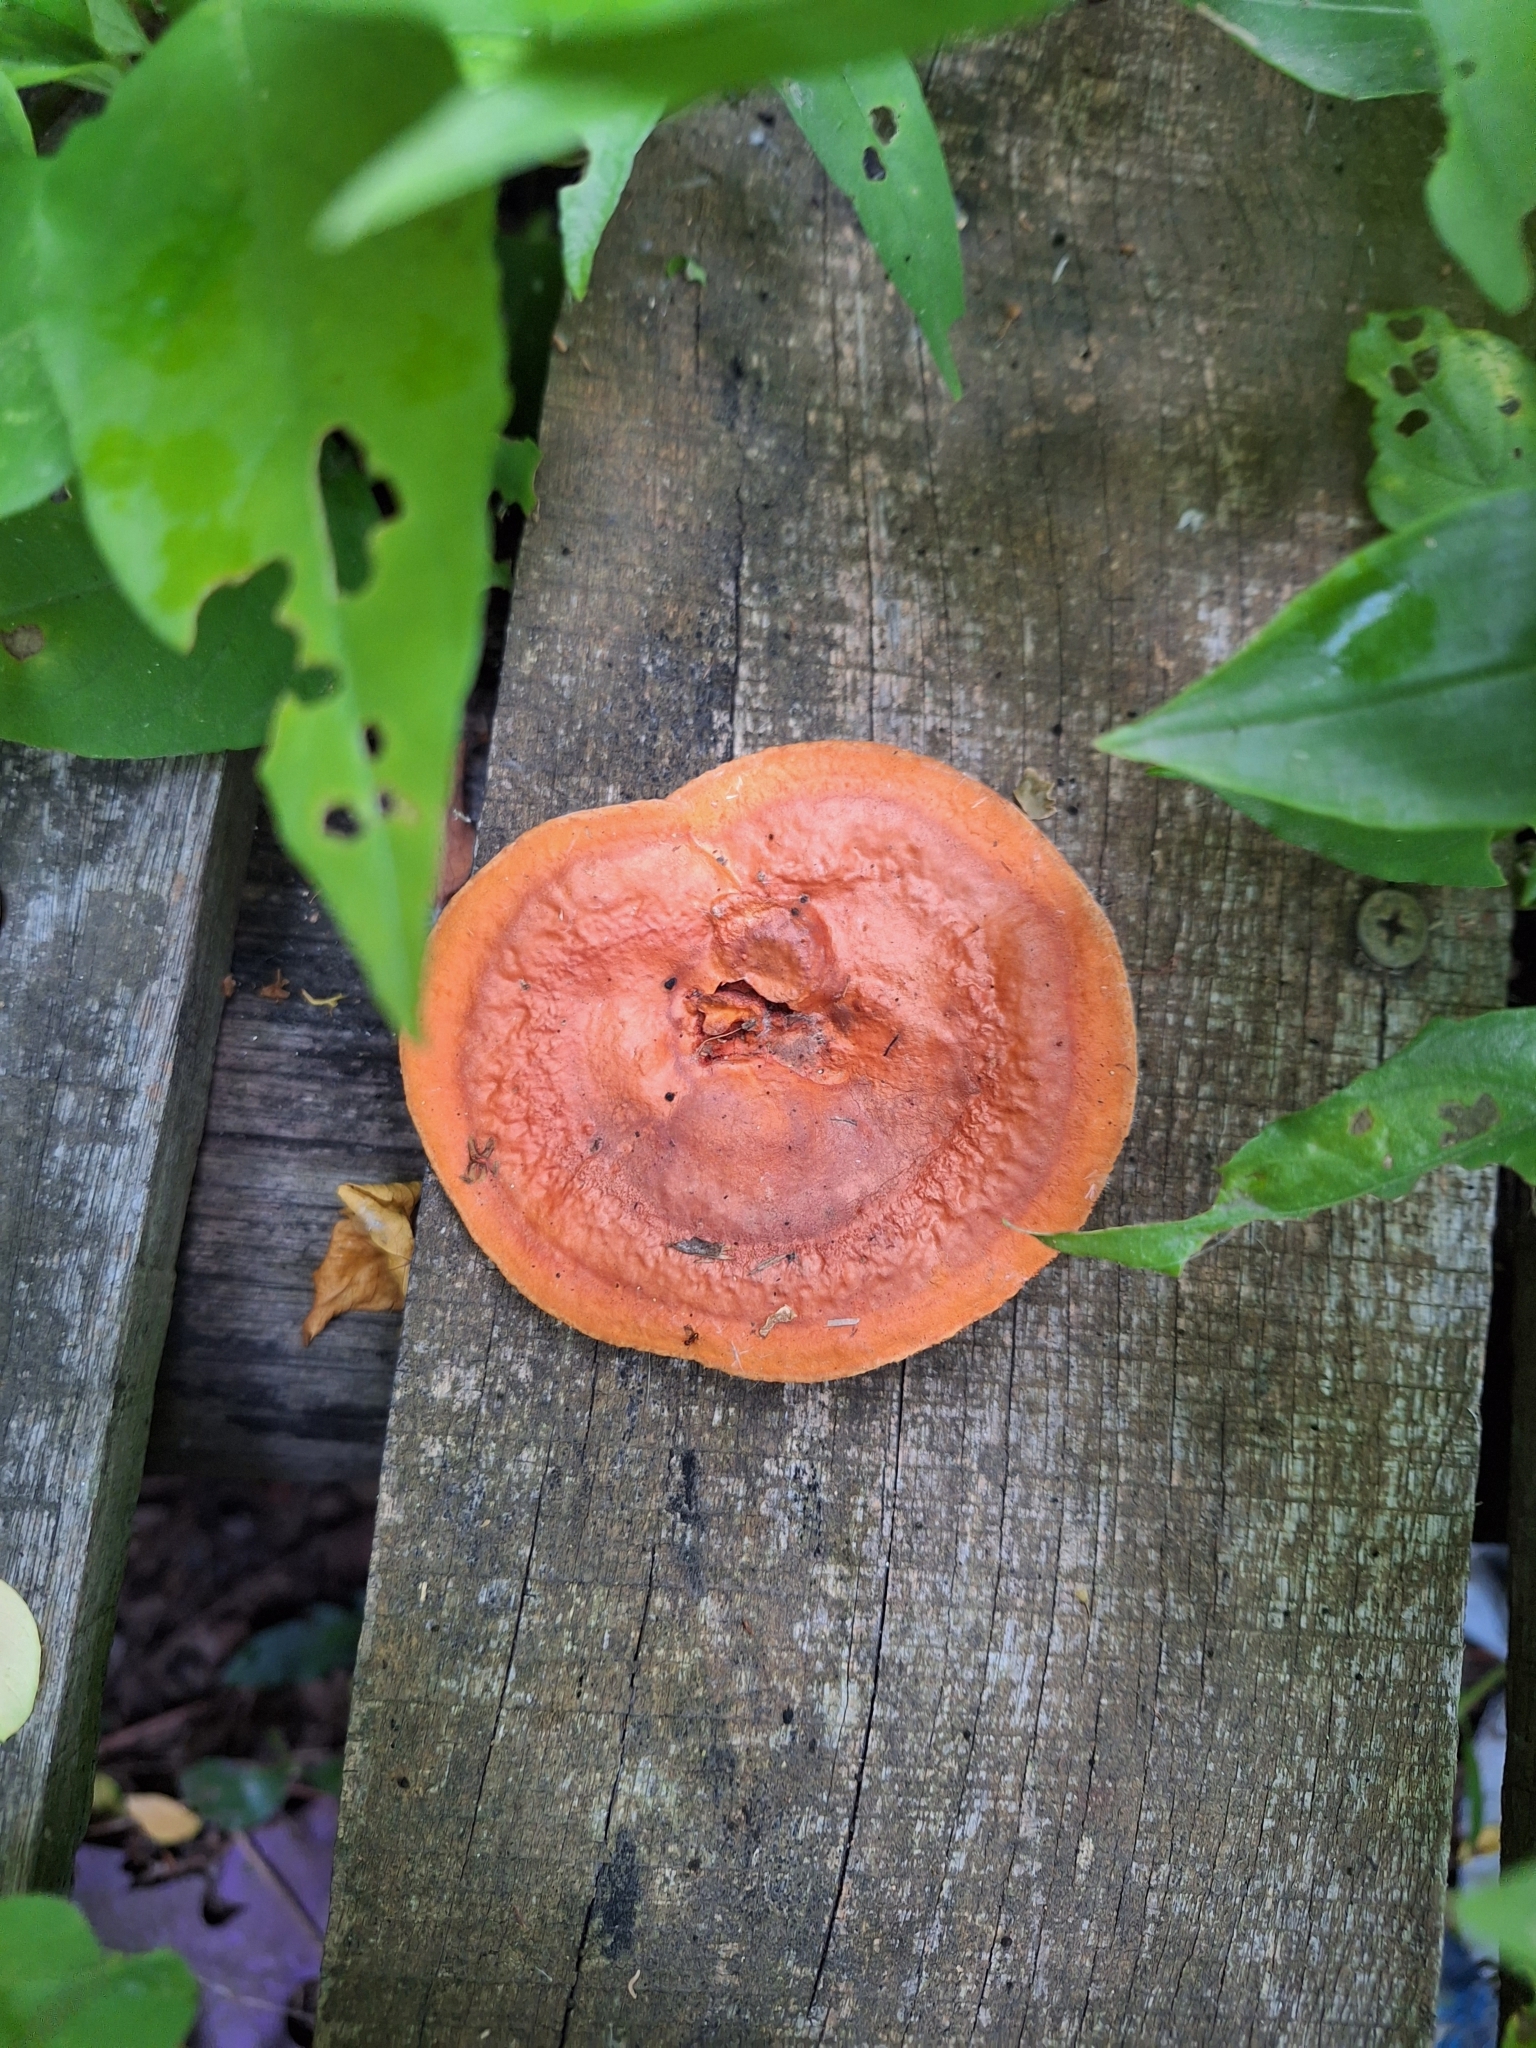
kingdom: Fungi
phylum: Basidiomycota
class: Agaricomycetes
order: Polyporales
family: Polyporaceae
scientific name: Polyporaceae
